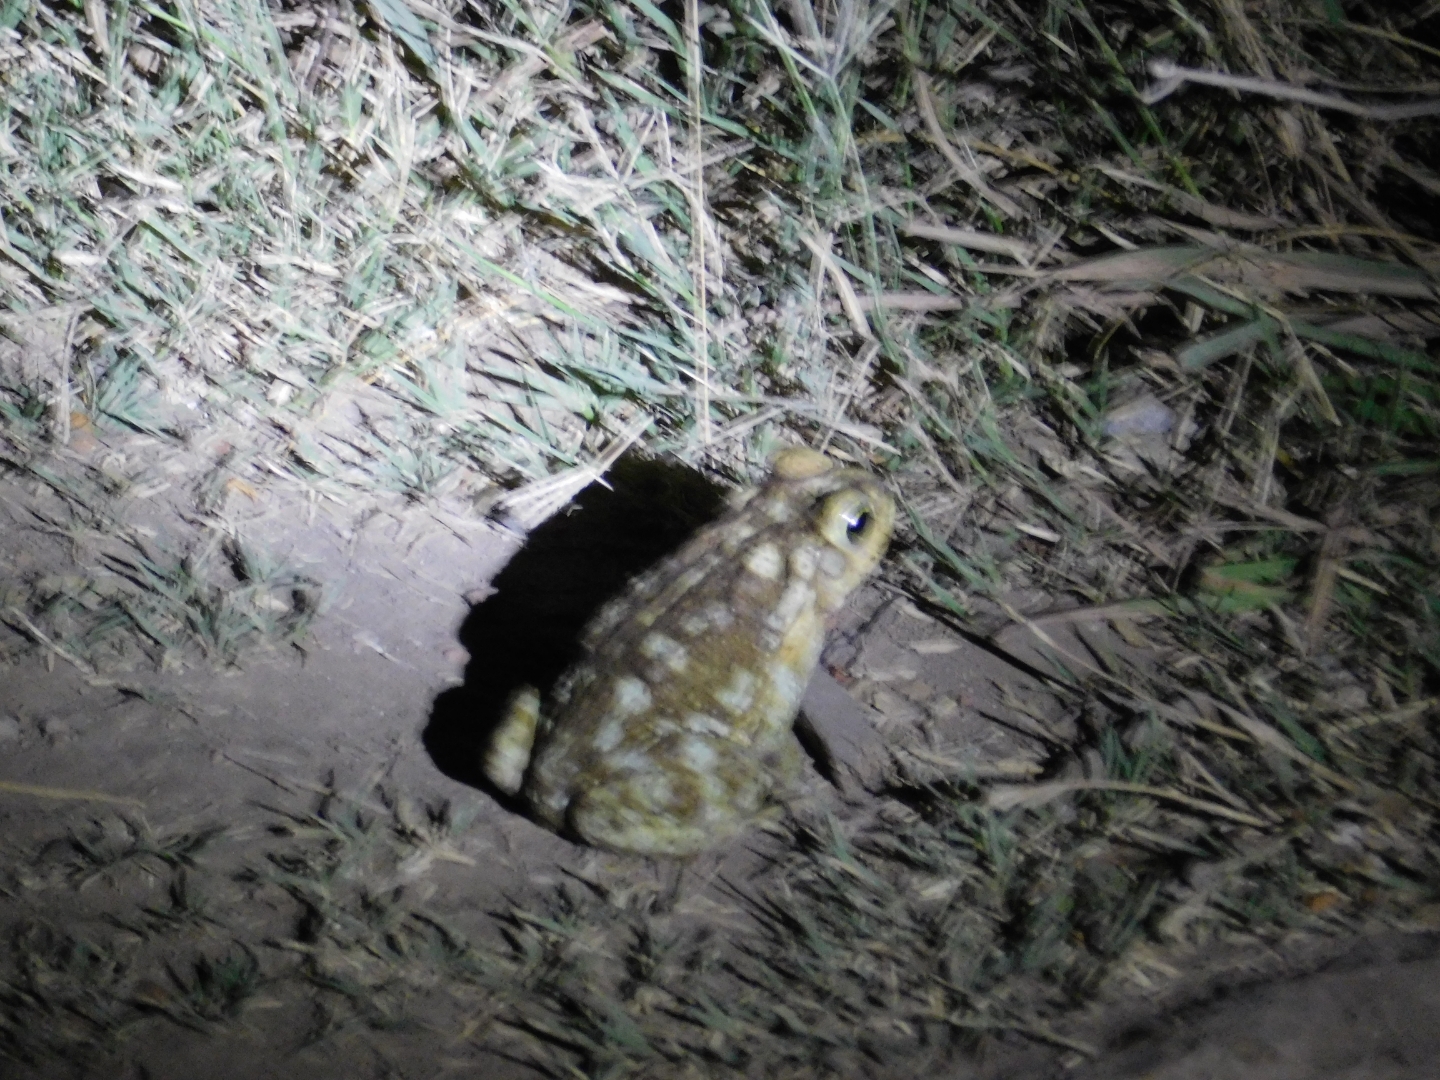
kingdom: Animalia
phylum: Chordata
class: Amphibia
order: Anura
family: Bufonidae
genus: Rhinella
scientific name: Rhinella arenarum
